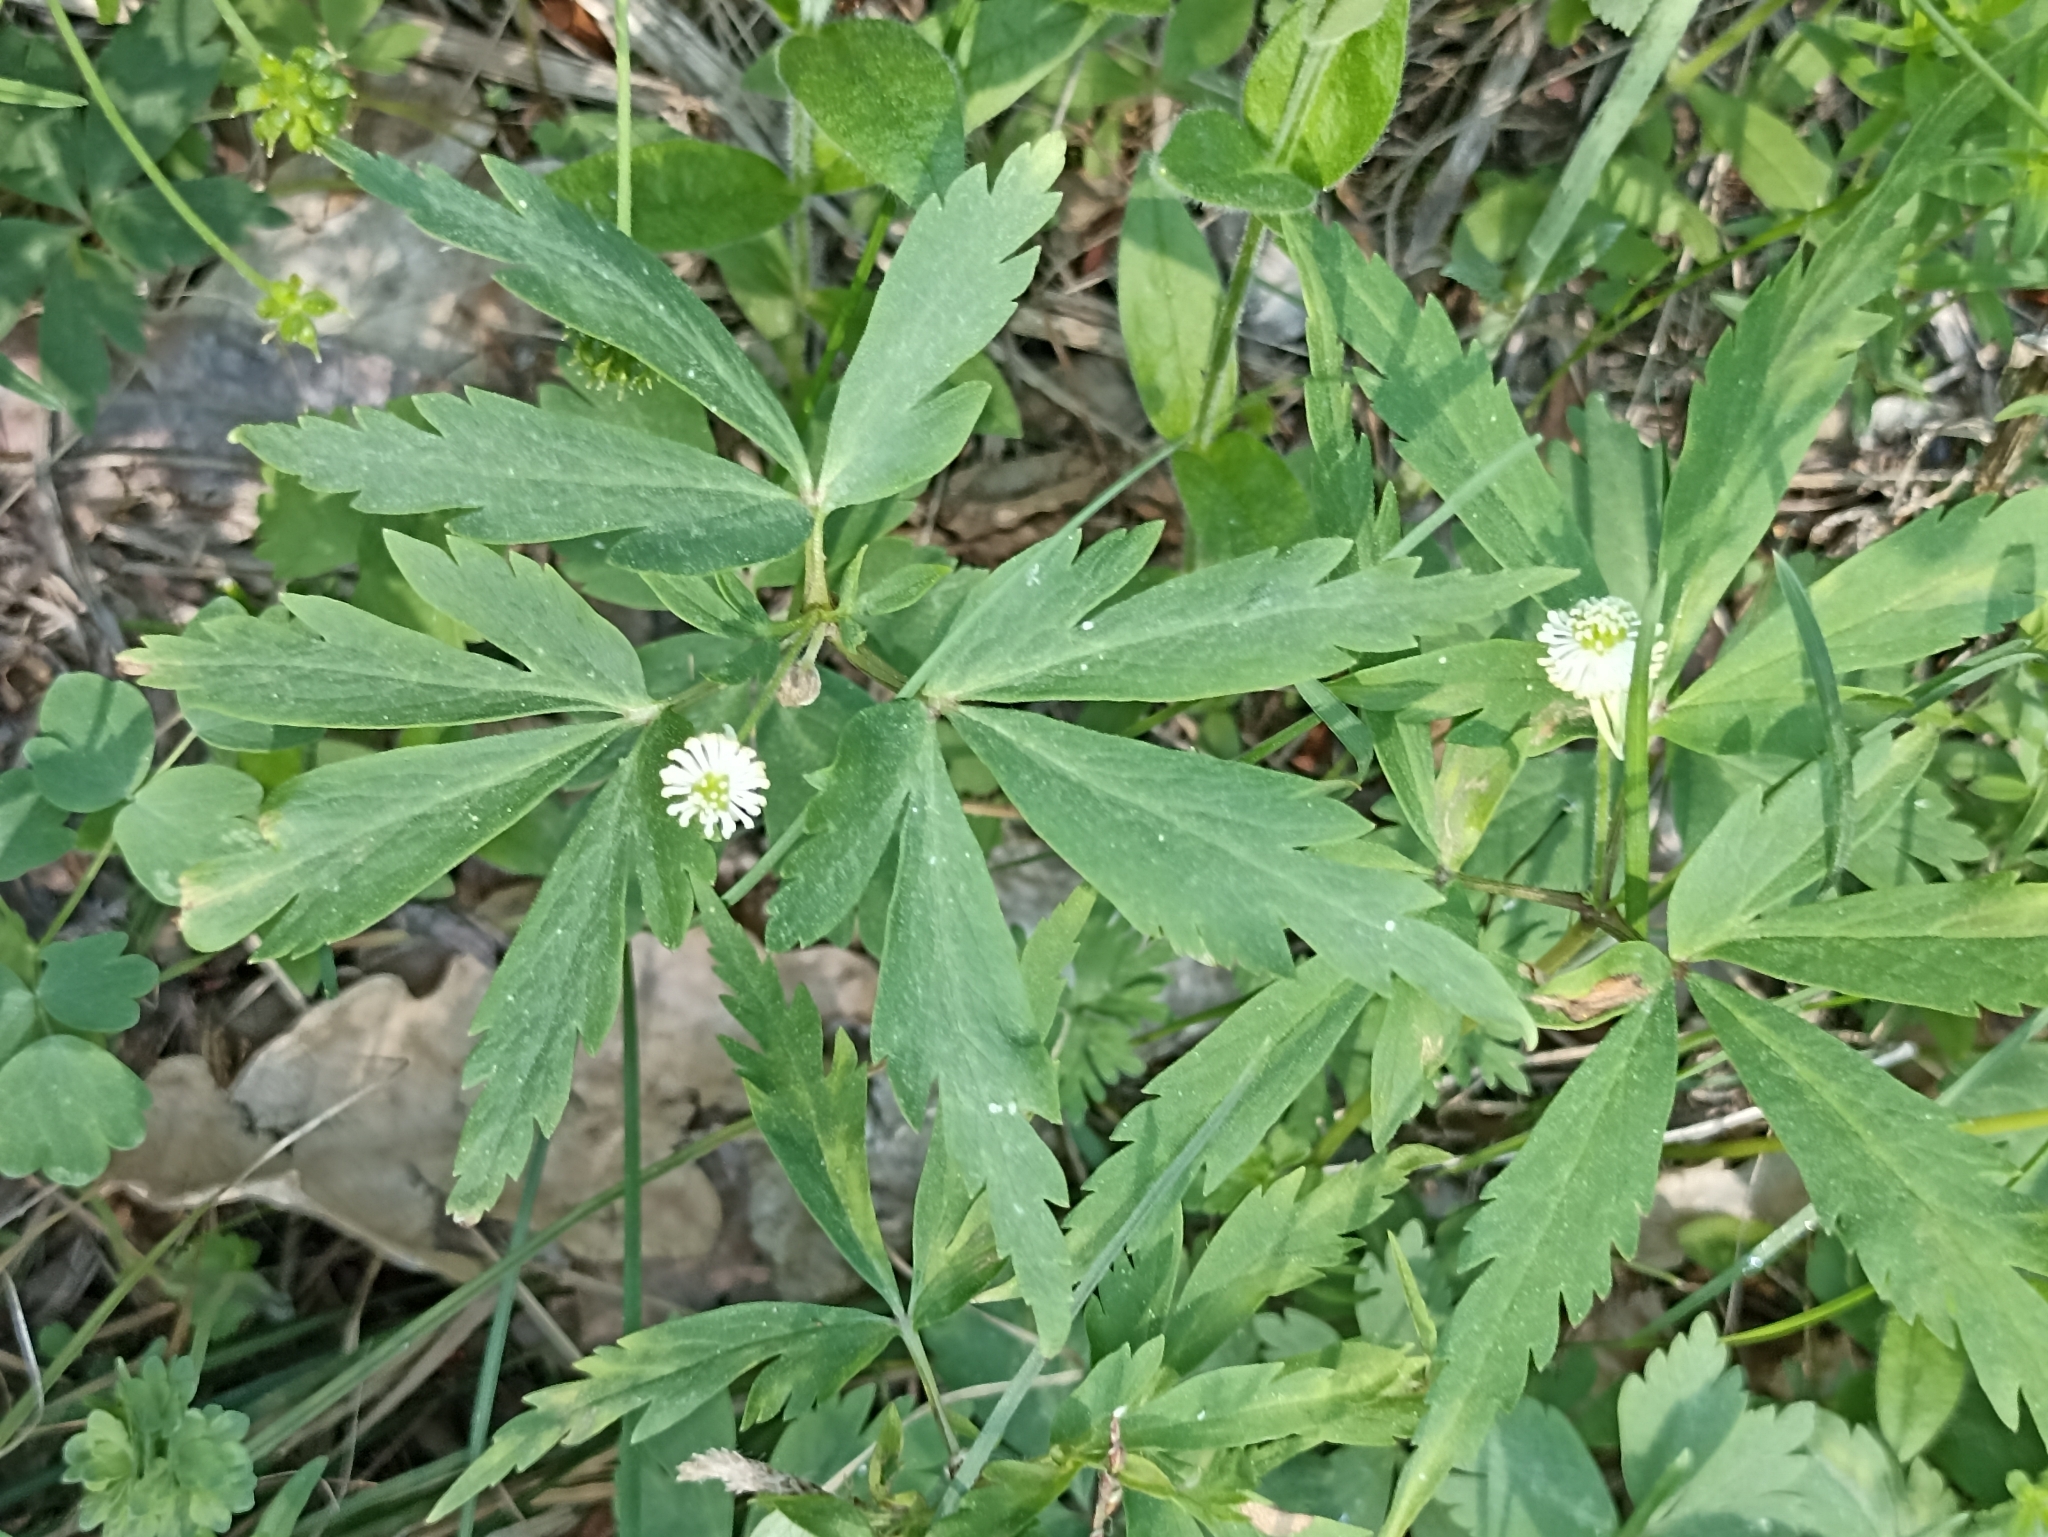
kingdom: Plantae
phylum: Tracheophyta
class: Magnoliopsida
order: Ranunculales
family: Ranunculaceae
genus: Anemone
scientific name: Anemone reflexa
